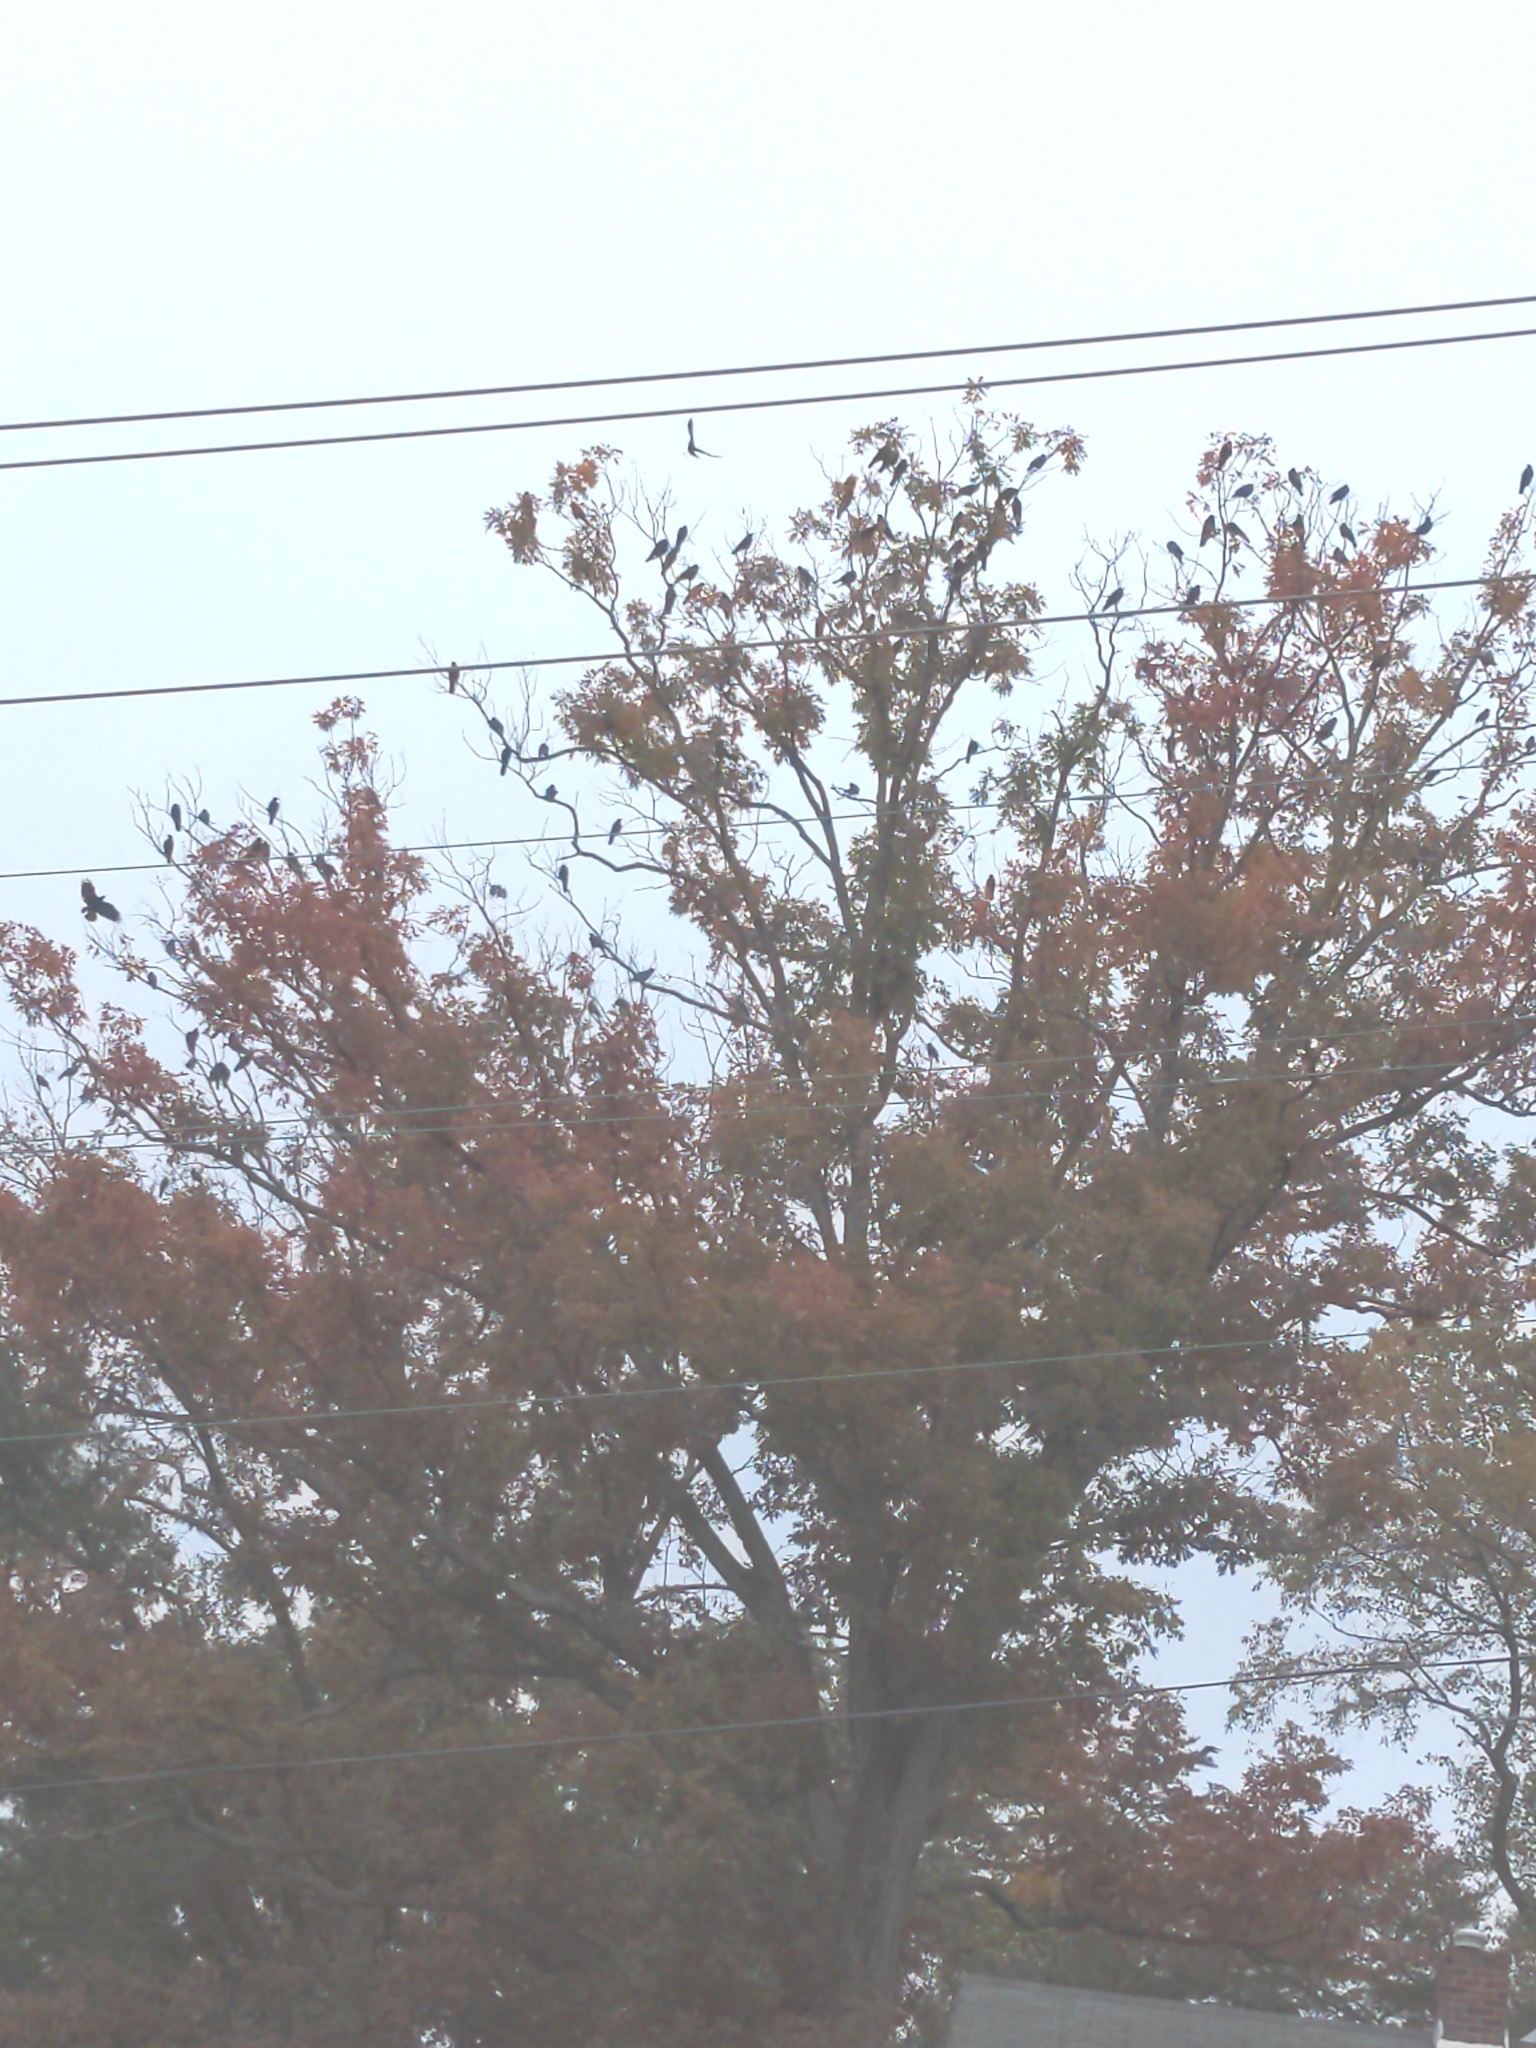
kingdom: Animalia
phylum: Chordata
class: Aves
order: Passeriformes
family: Corvidae
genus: Corvus
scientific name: Corvus ossifragus
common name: Fish crow
